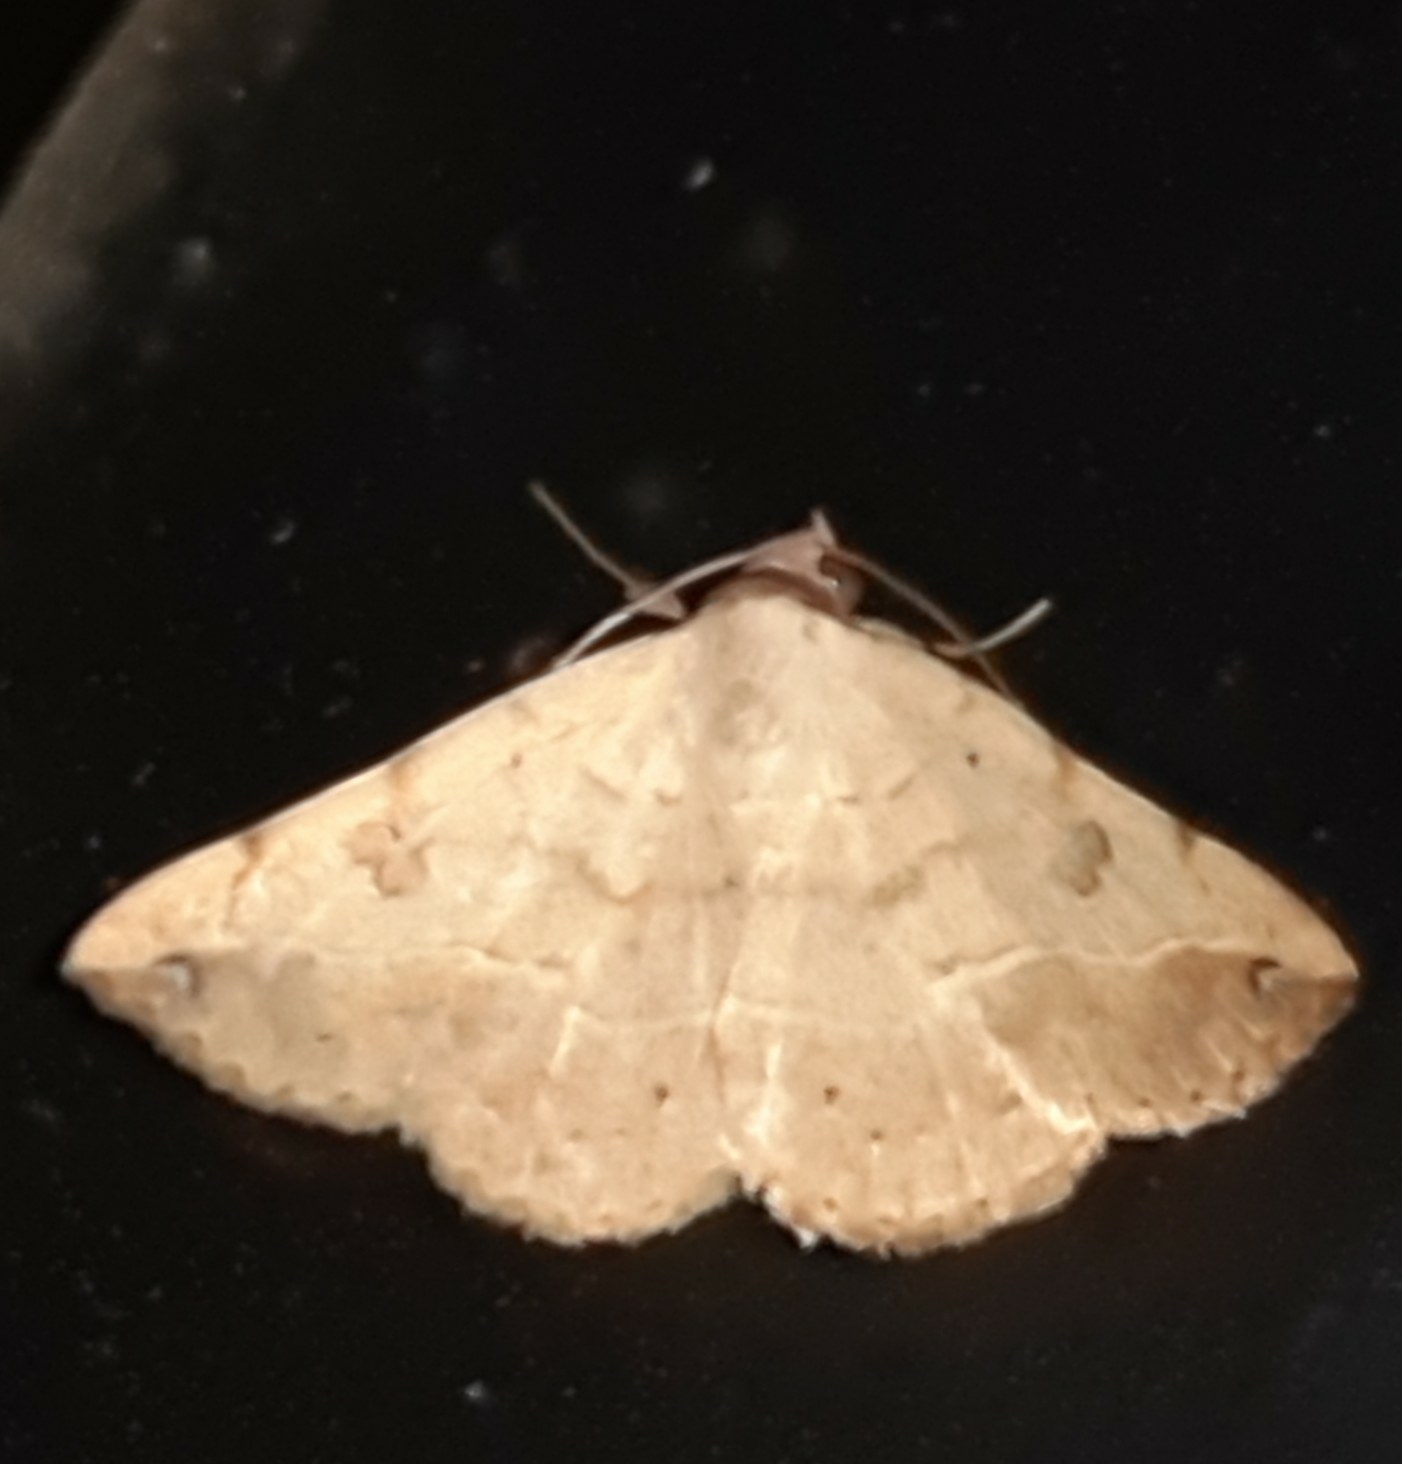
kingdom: Animalia
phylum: Arthropoda
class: Insecta
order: Lepidoptera
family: Erebidae
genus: Hemeroplanis
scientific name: Hemeroplanis scopulepes
